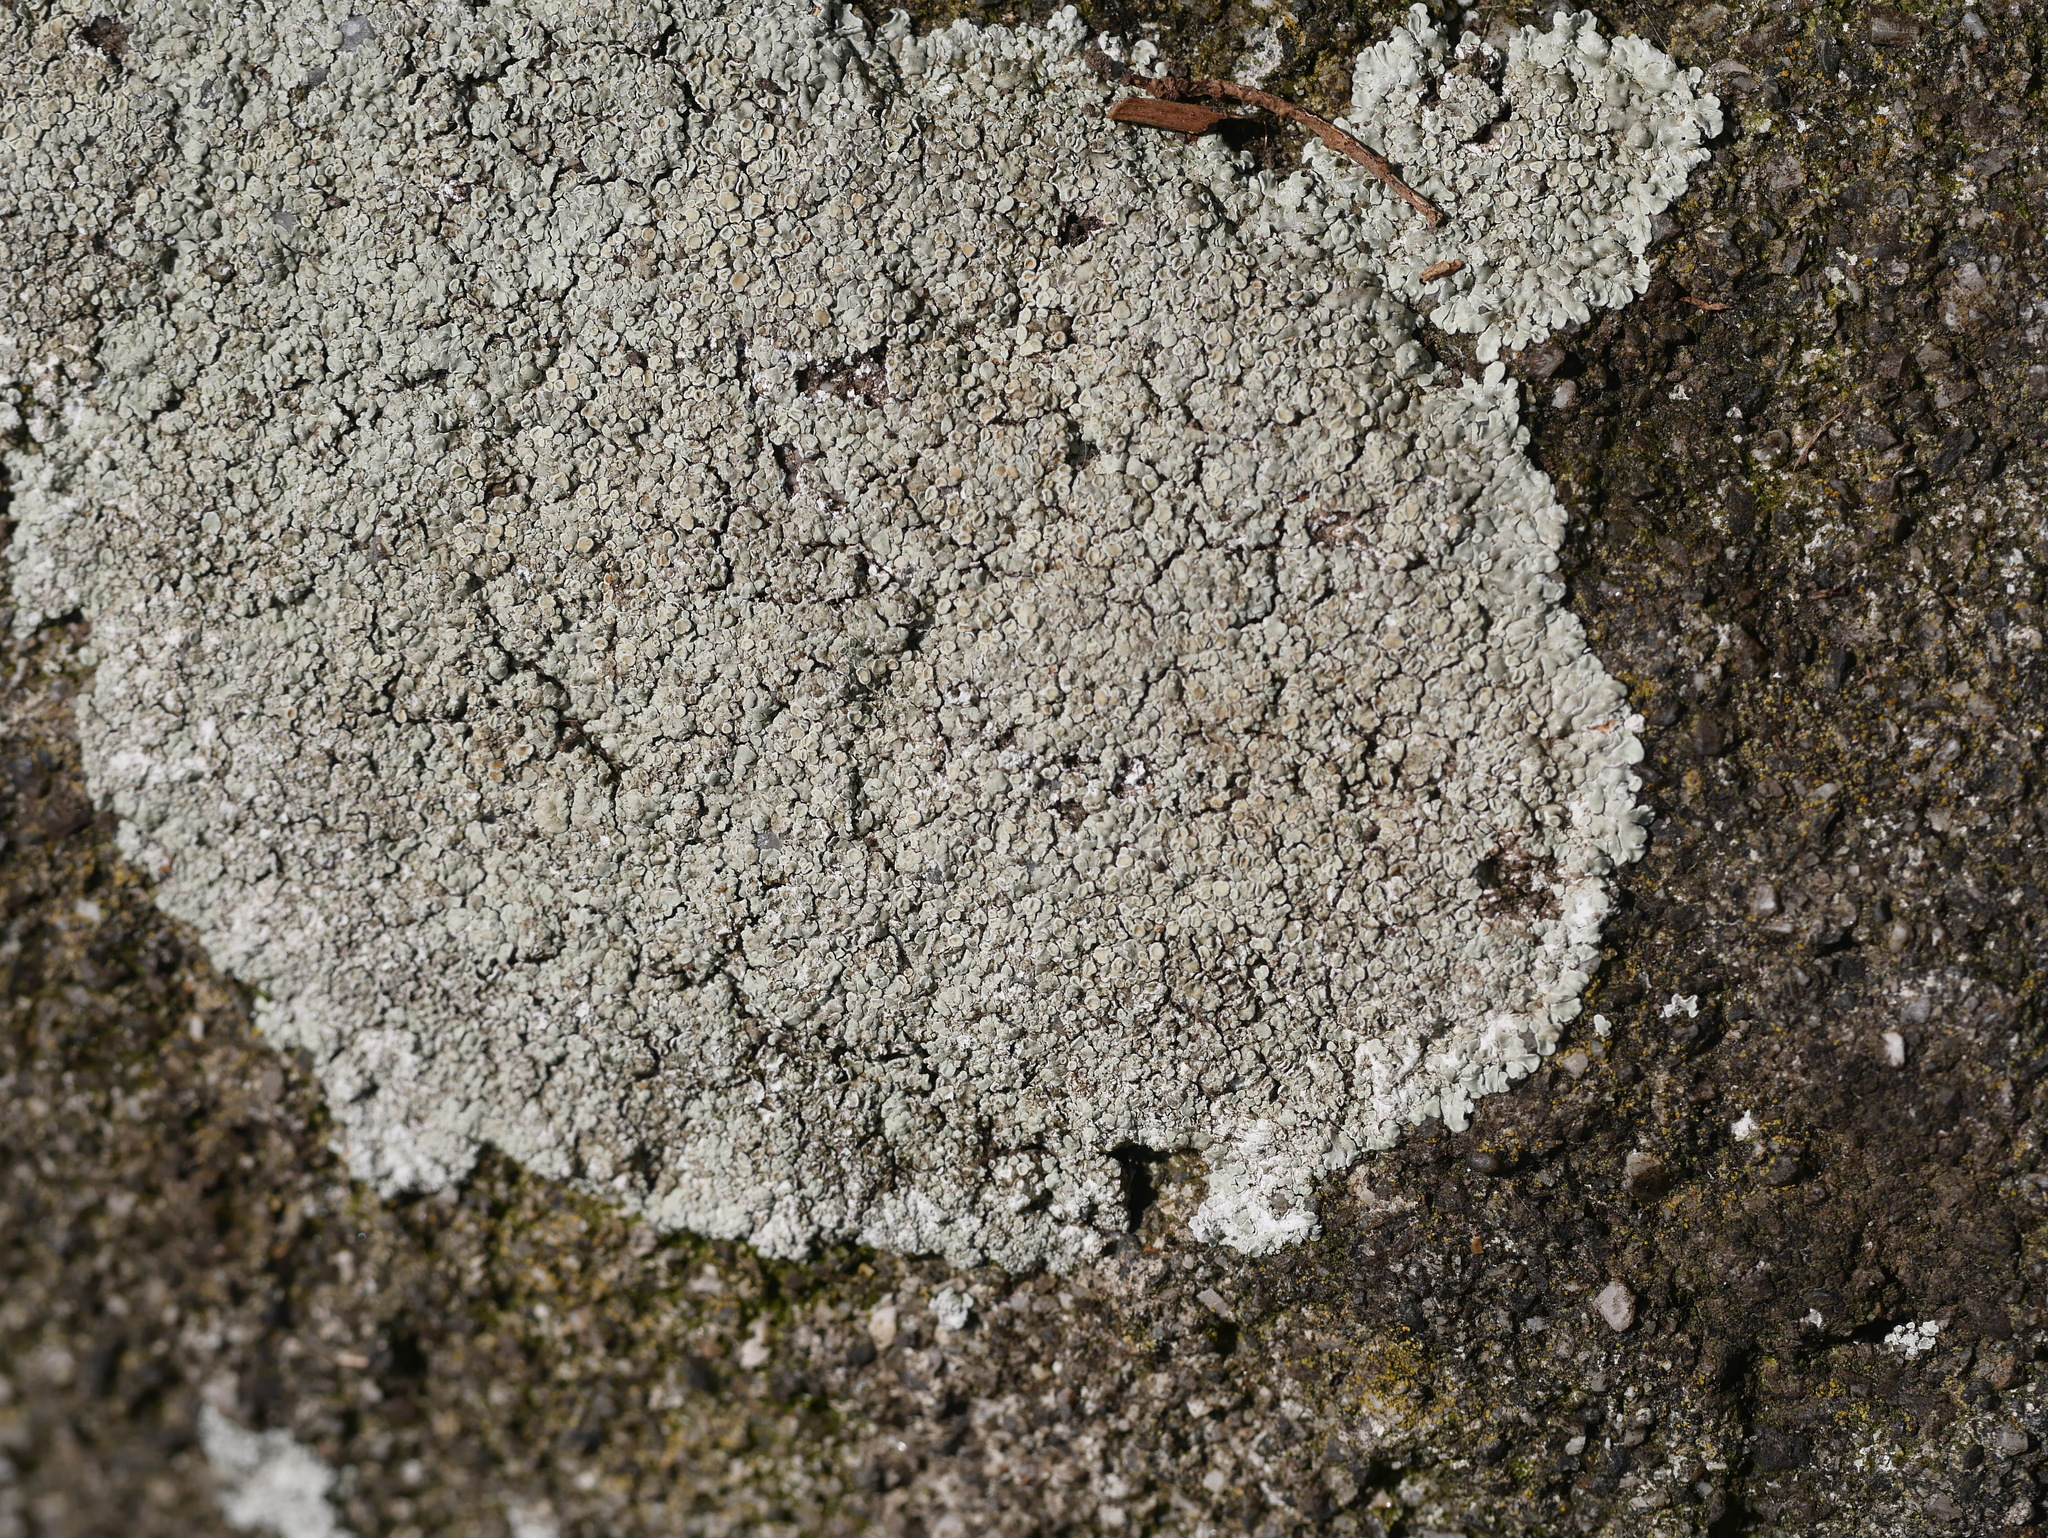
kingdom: Fungi
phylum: Ascomycota
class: Lecanoromycetes
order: Lecanorales
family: Lecanoraceae
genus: Protoparmeliopsis
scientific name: Protoparmeliopsis muralis
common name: Stonewall rim lichen
